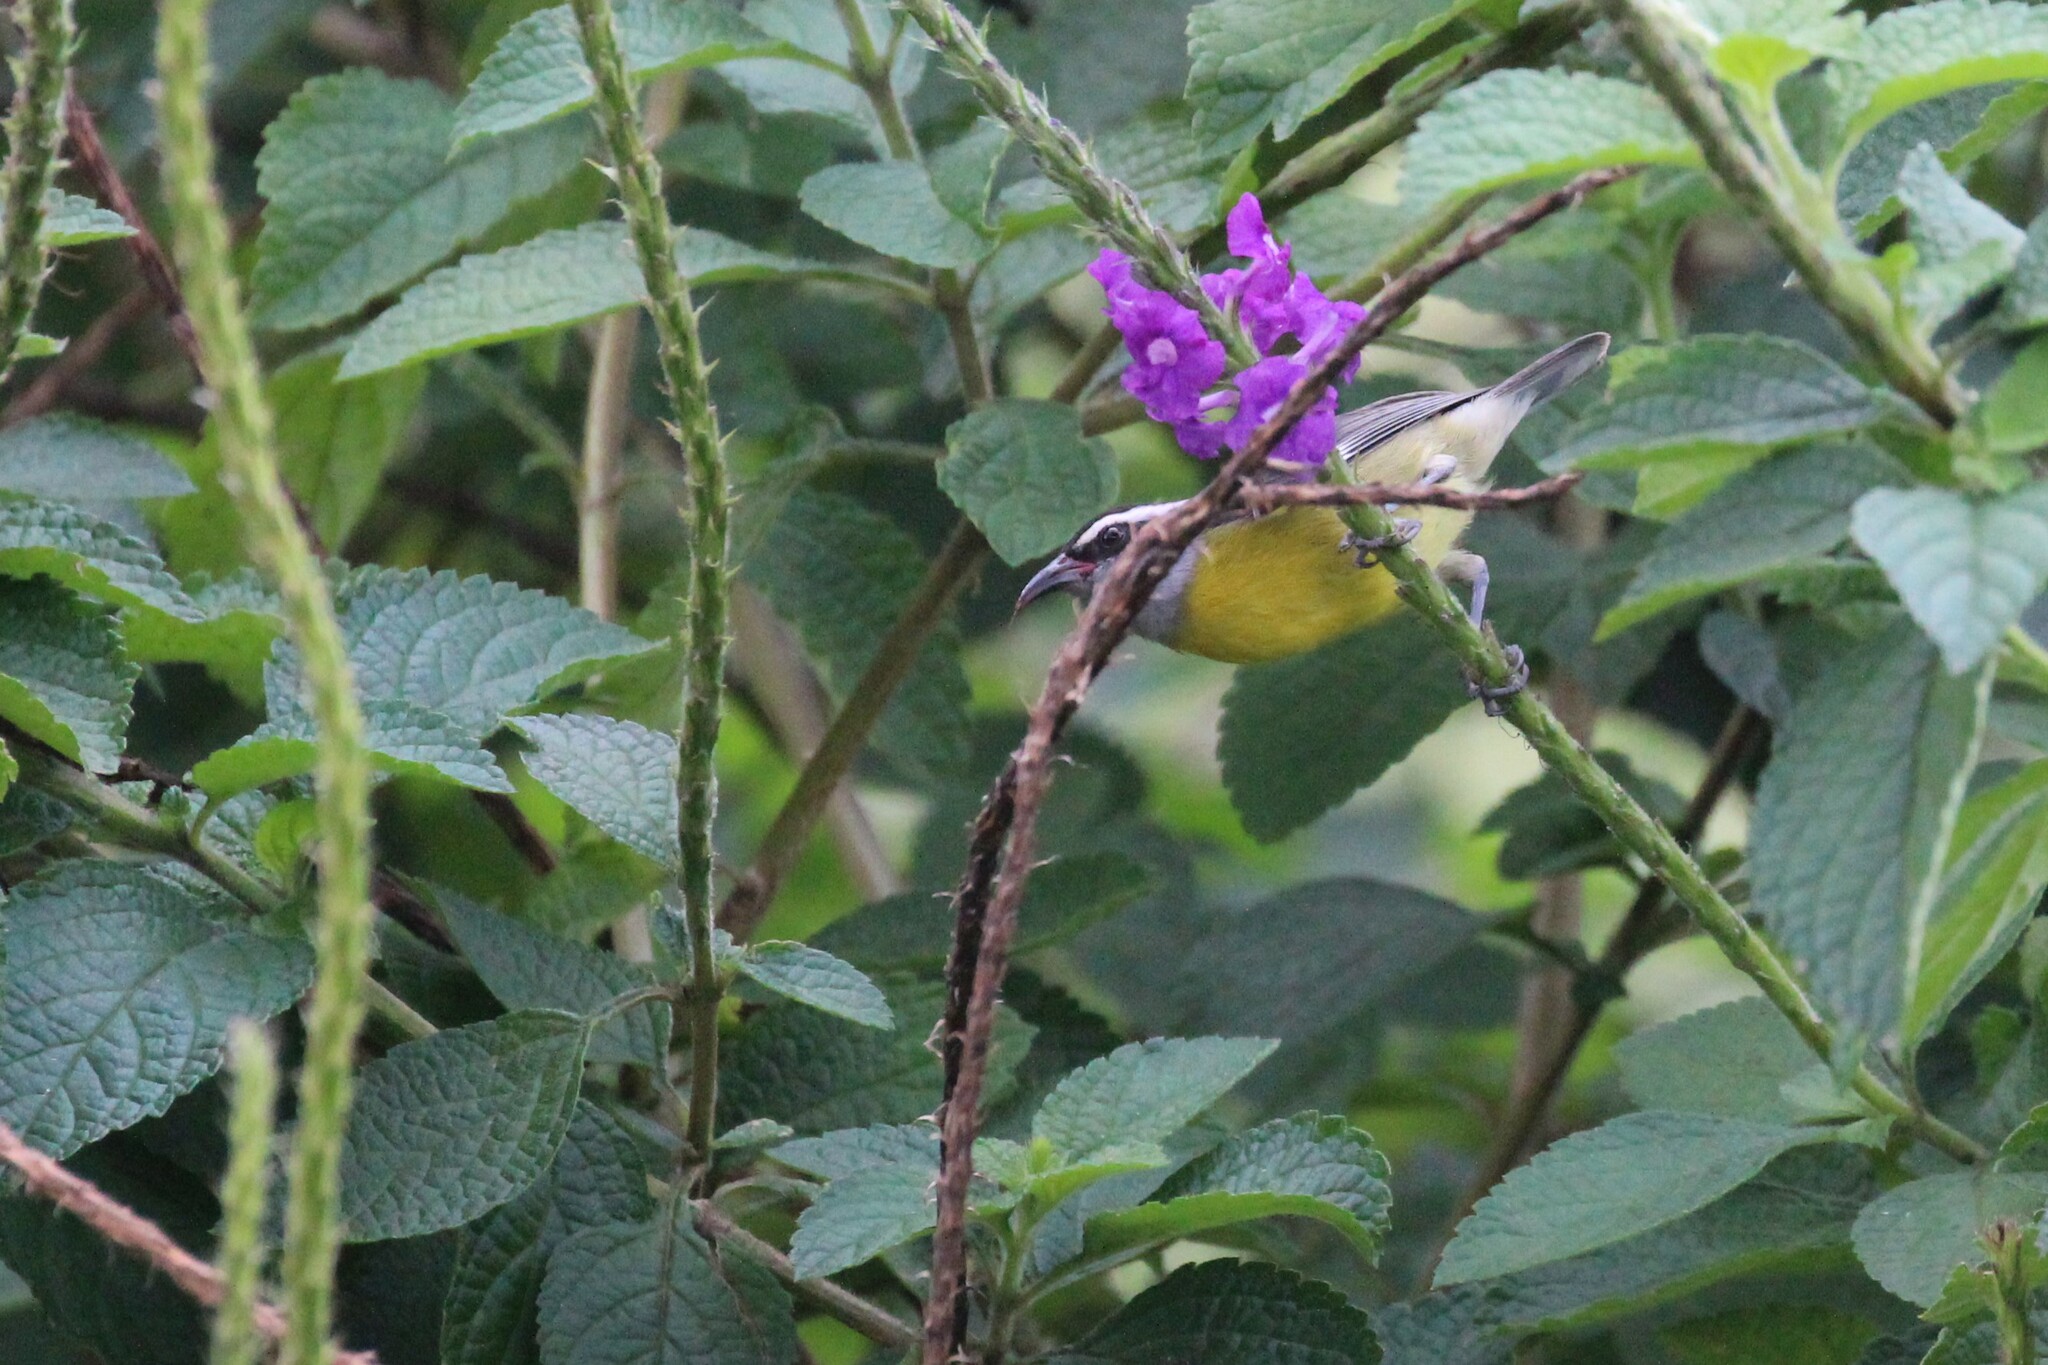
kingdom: Animalia
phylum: Chordata
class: Aves
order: Passeriformes
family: Thraupidae
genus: Coereba
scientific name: Coereba flaveola
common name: Bananaquit
